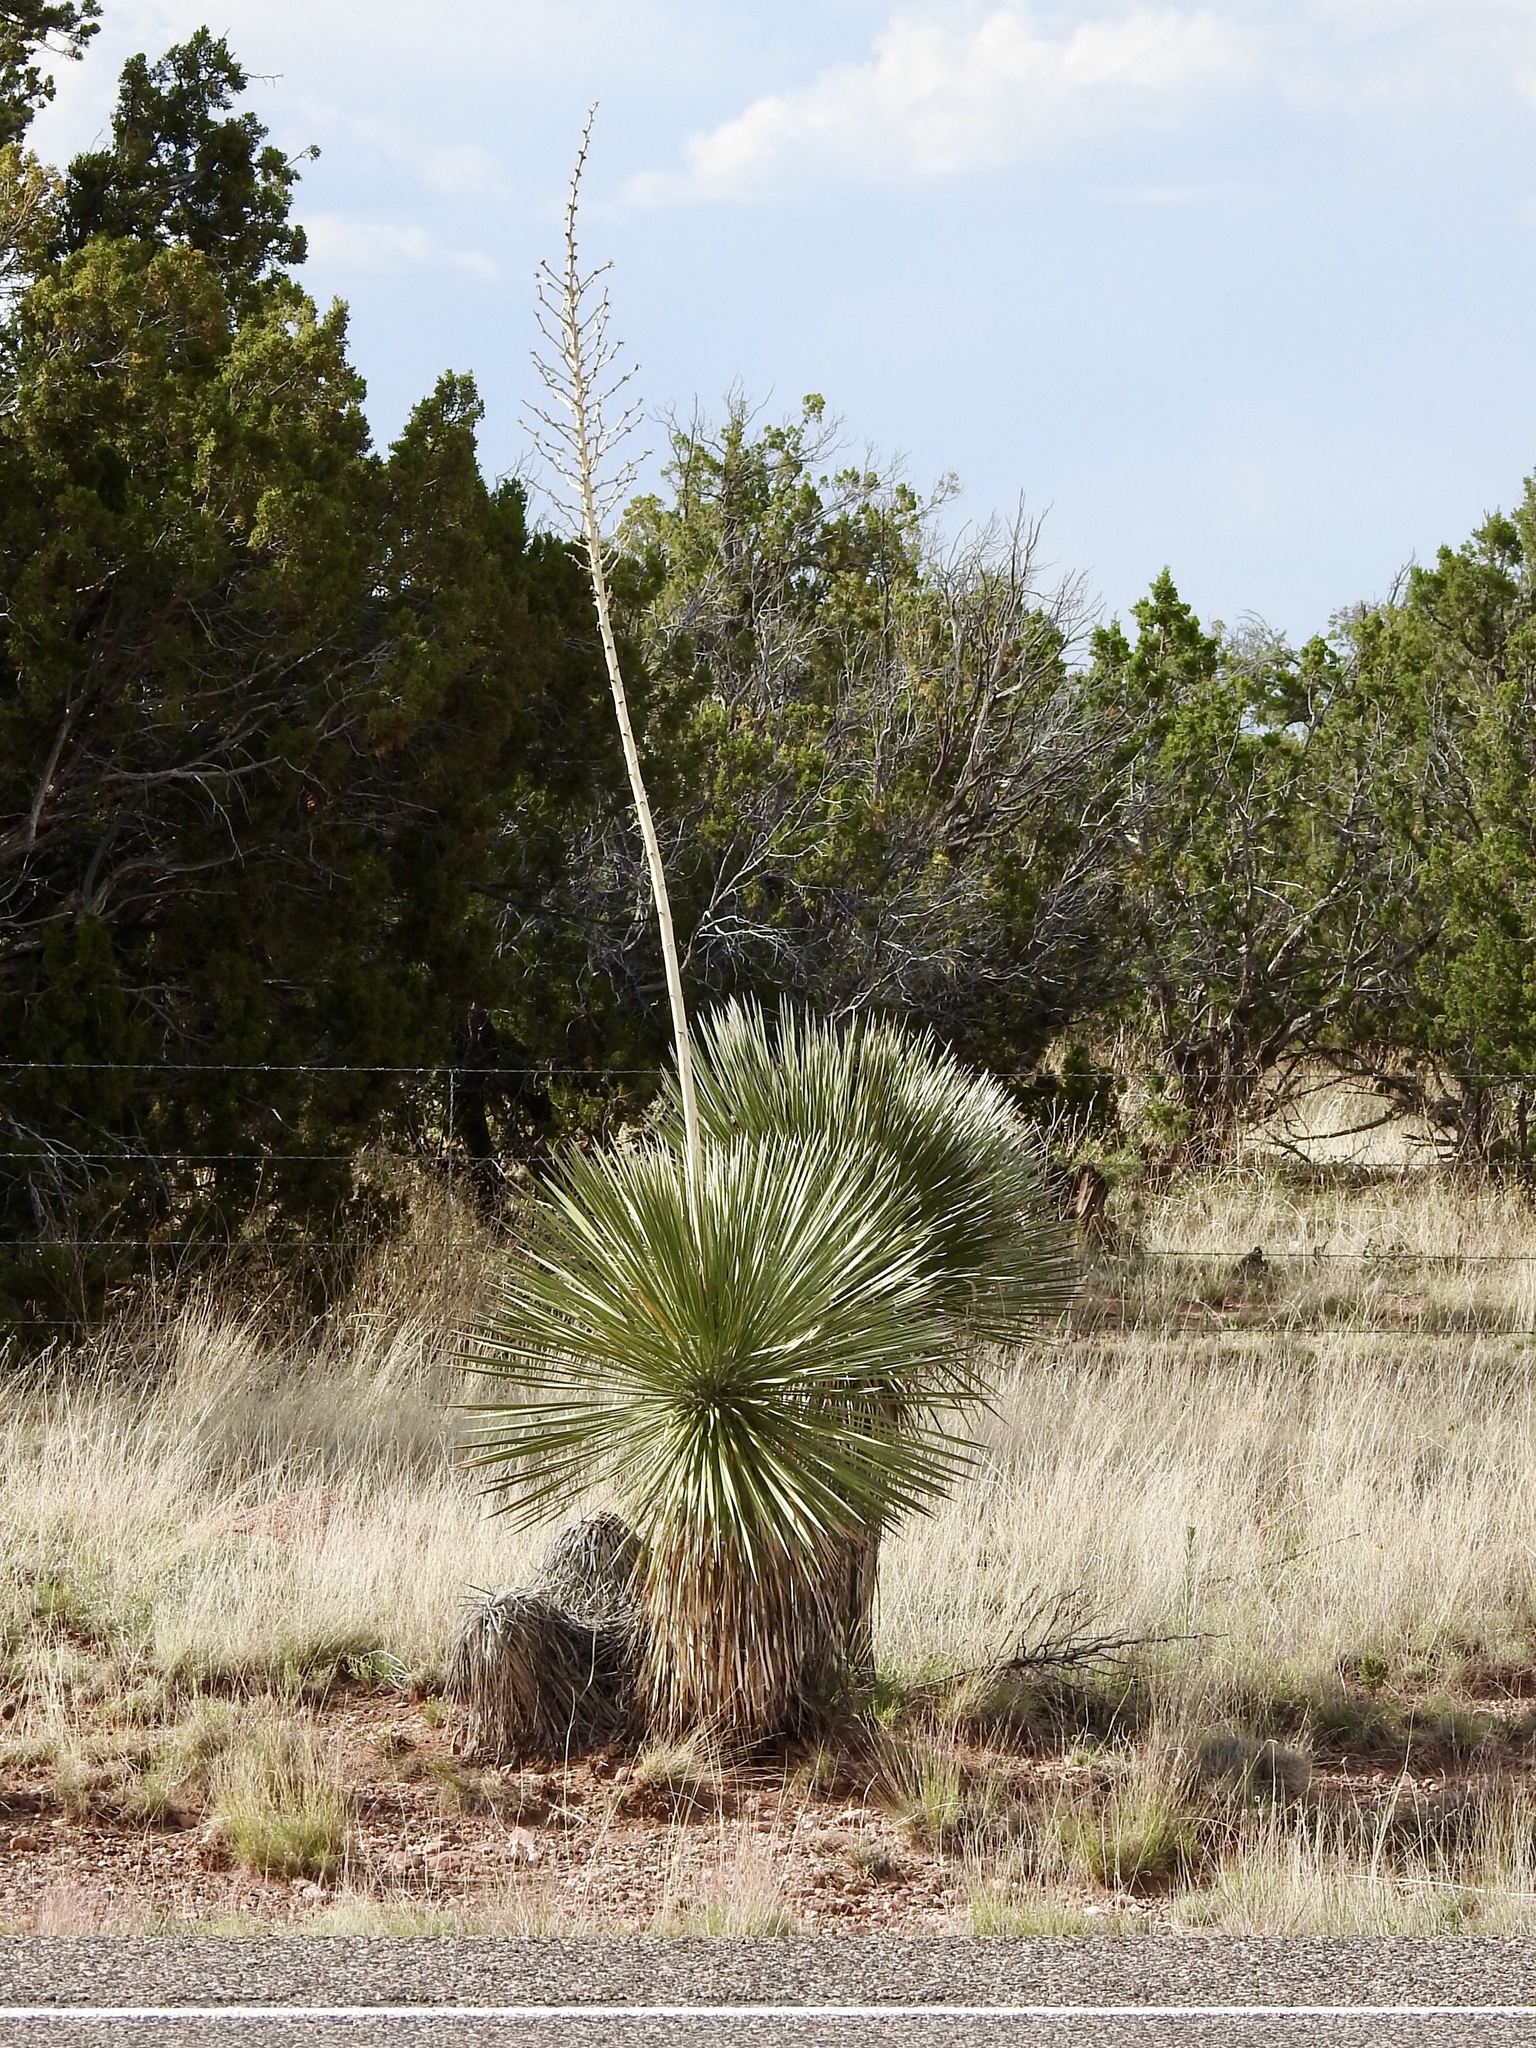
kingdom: Plantae
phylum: Tracheophyta
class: Liliopsida
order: Asparagales
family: Asparagaceae
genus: Yucca
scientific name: Yucca elata
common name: Palmella
